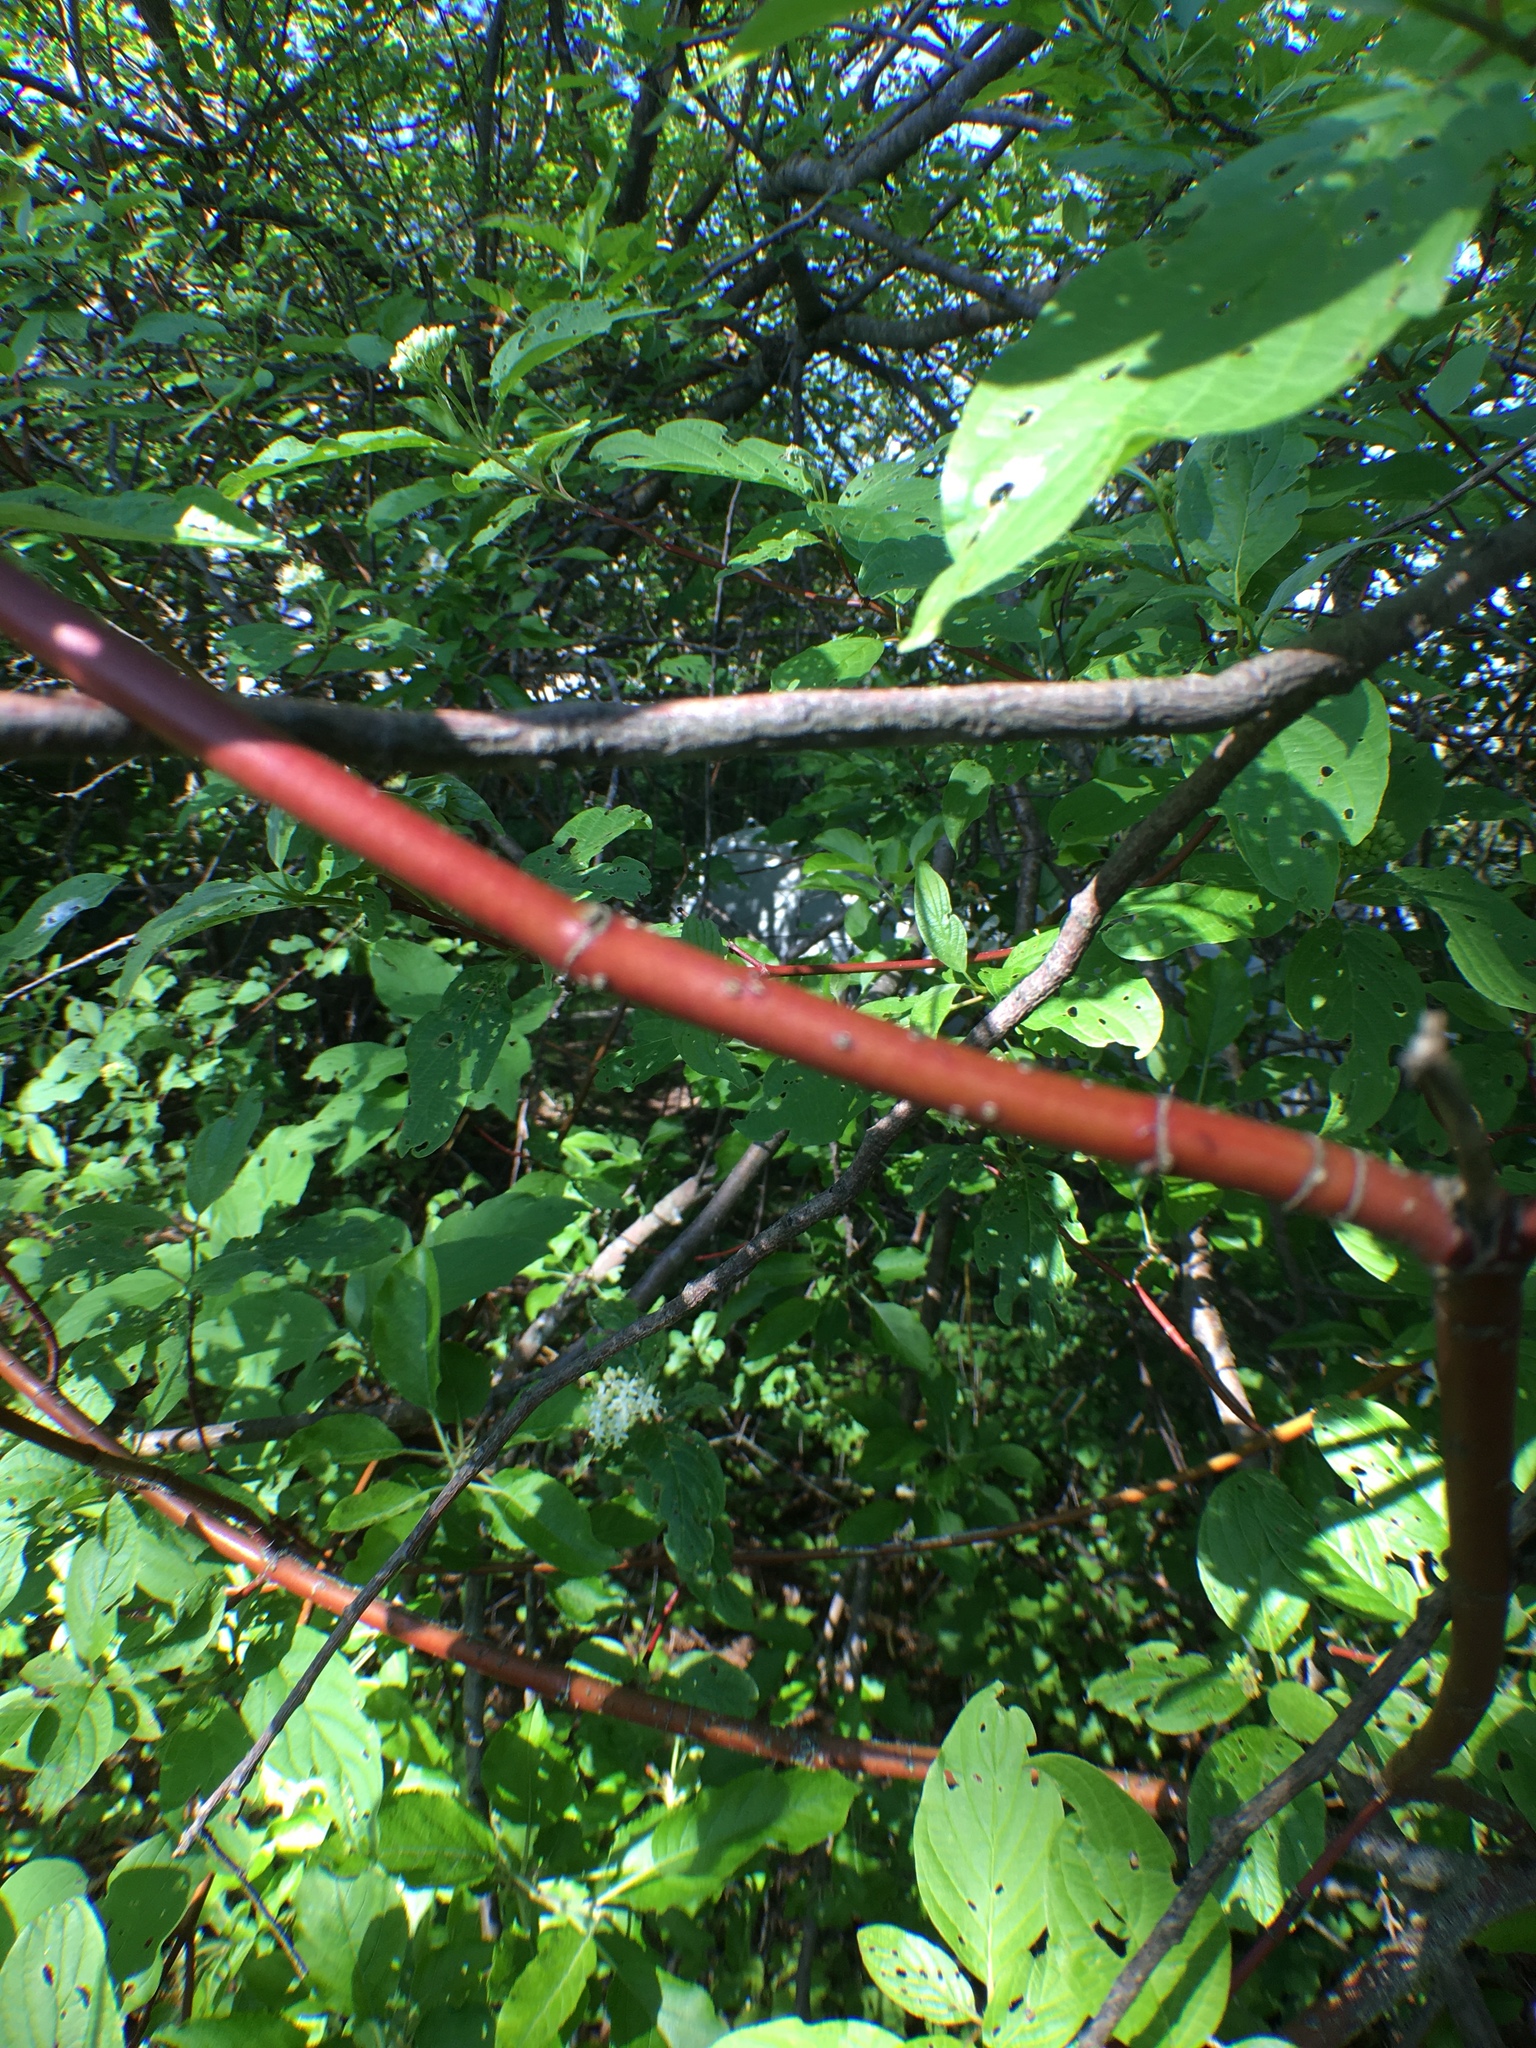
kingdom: Plantae
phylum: Tracheophyta
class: Magnoliopsida
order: Cornales
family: Cornaceae
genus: Cornus
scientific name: Cornus sericea
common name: Red-osier dogwood
